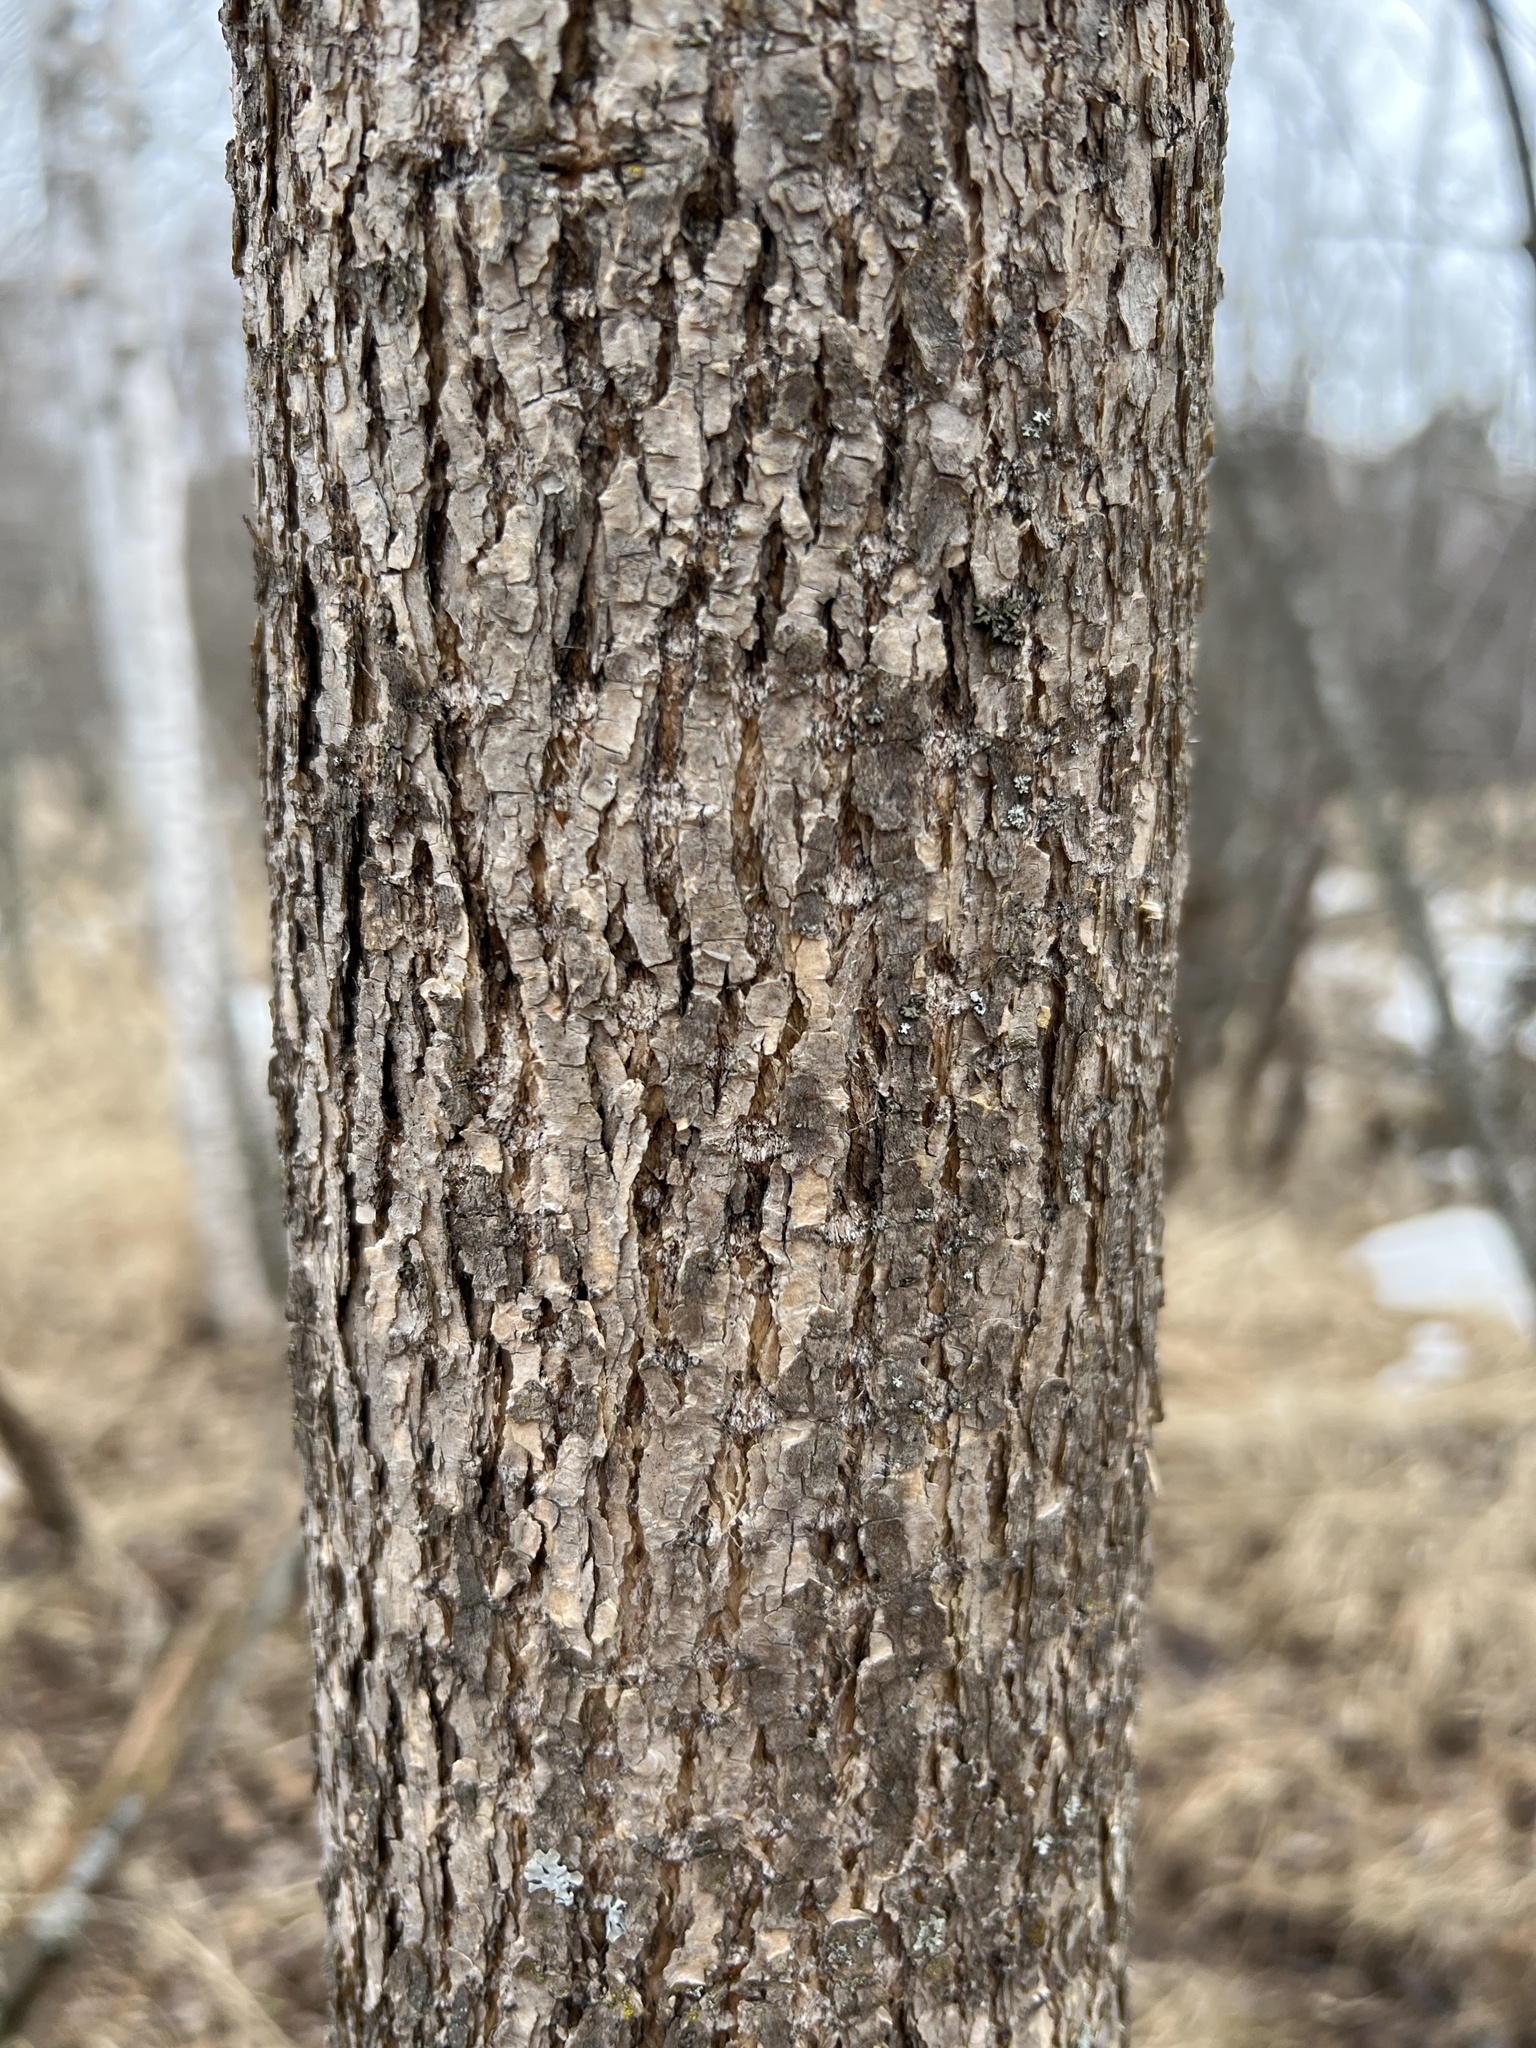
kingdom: Plantae
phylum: Tracheophyta
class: Magnoliopsida
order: Lamiales
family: Oleaceae
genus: Fraxinus
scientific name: Fraxinus nigra
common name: Black ash
